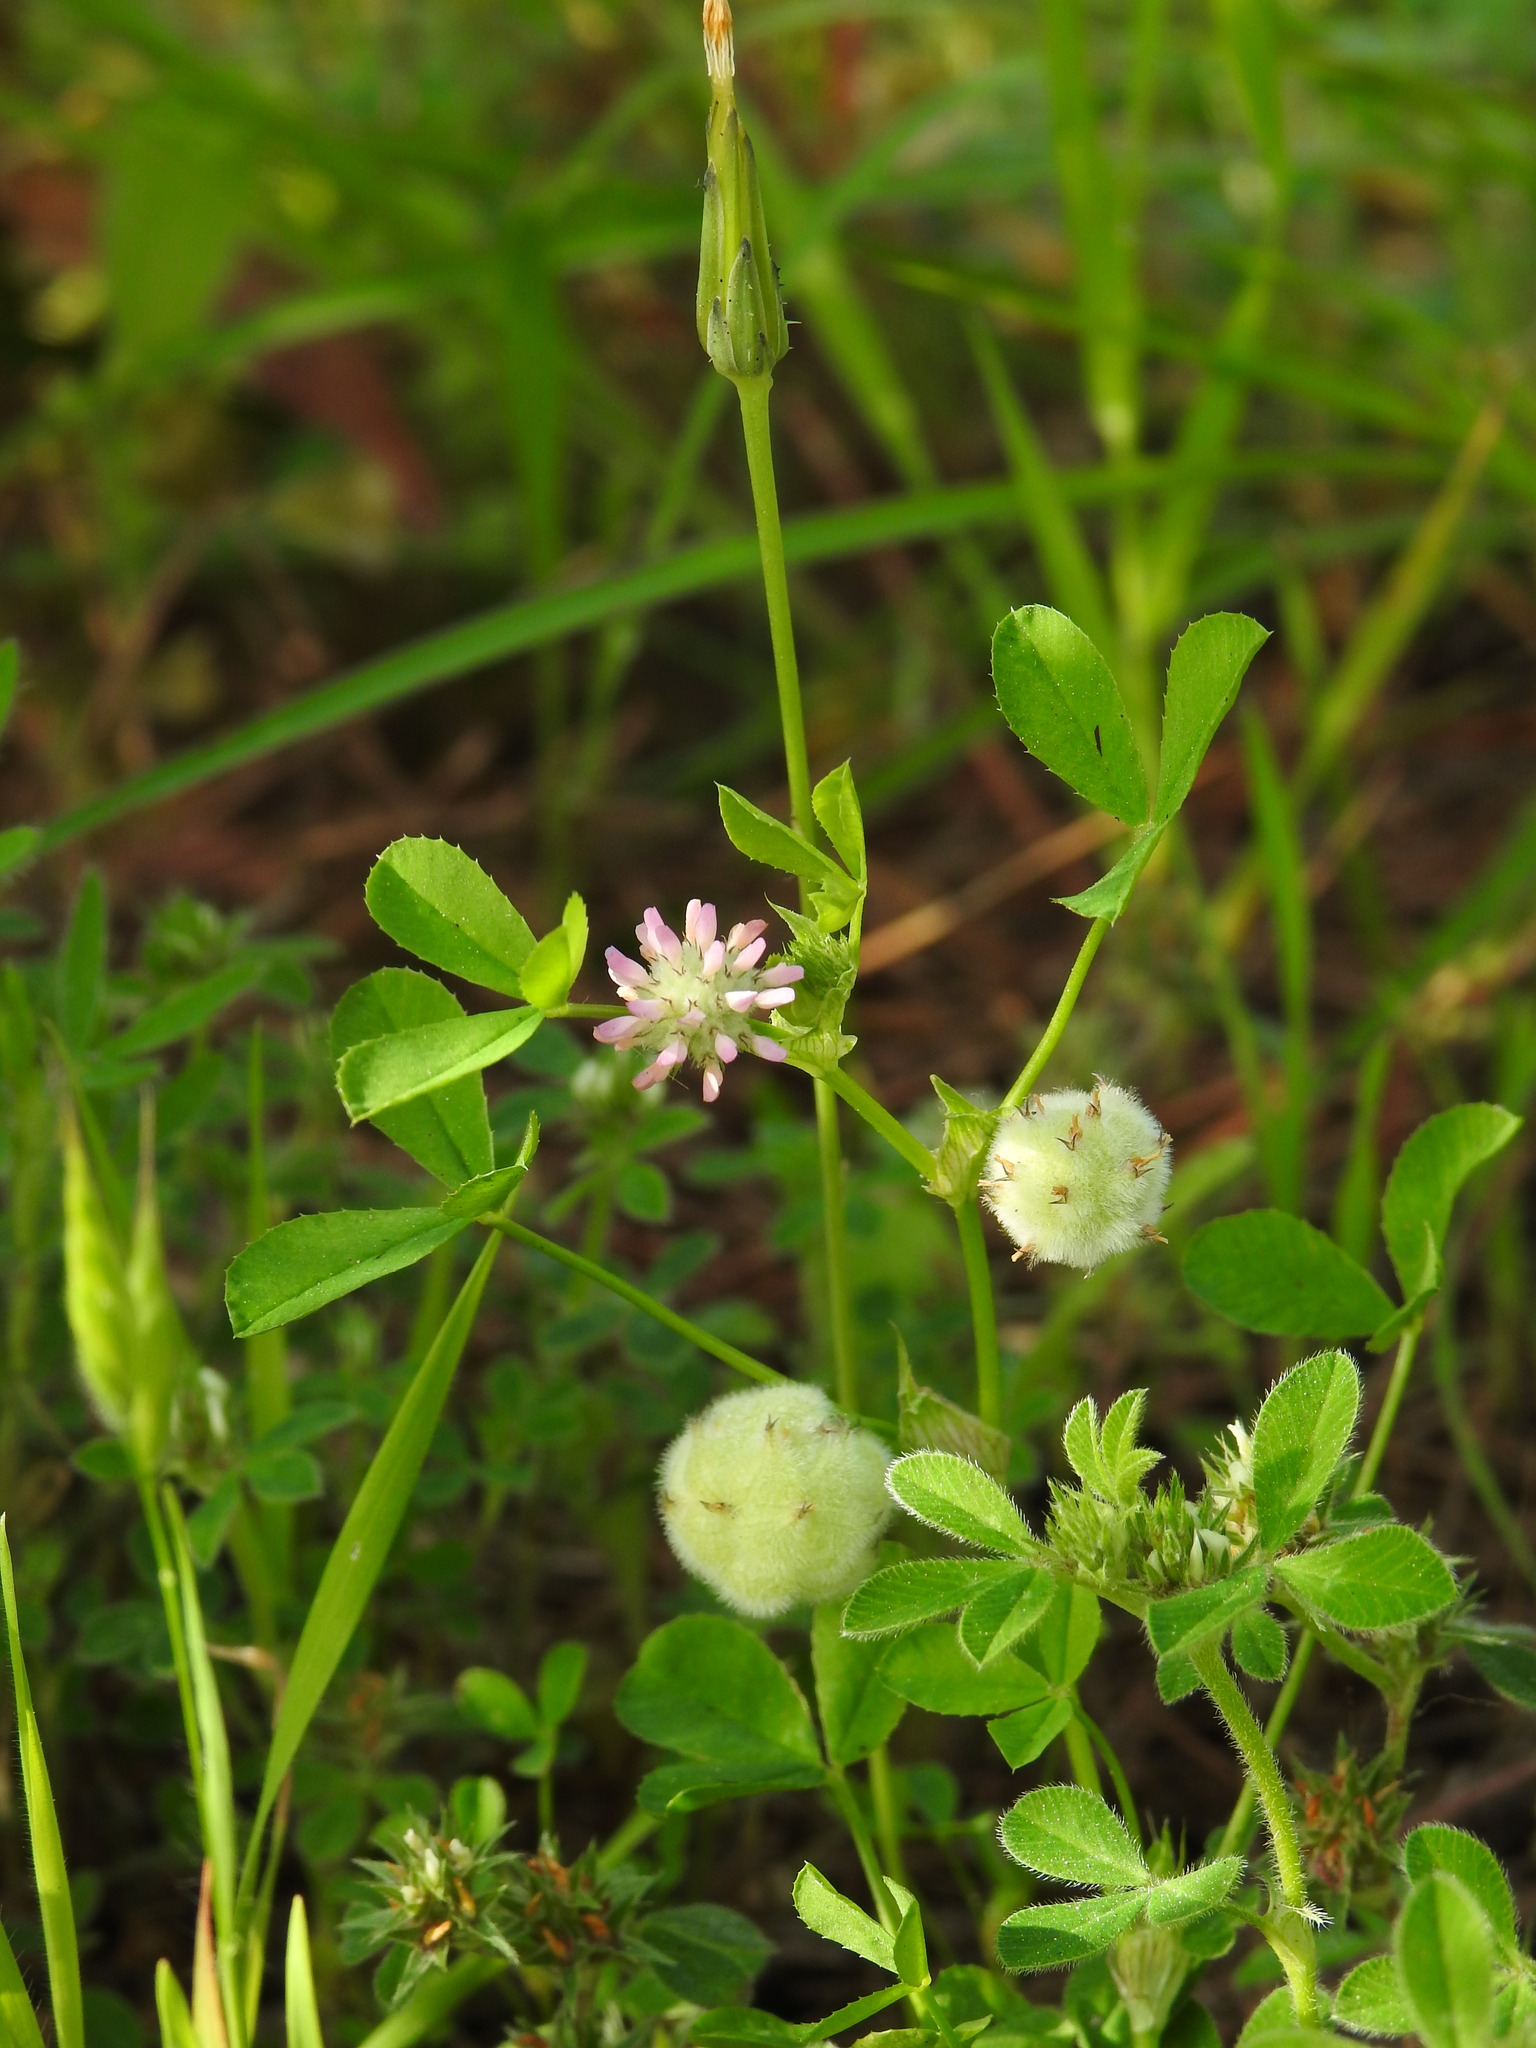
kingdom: Plantae
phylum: Tracheophyta
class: Magnoliopsida
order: Fabales
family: Fabaceae
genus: Trifolium
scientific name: Trifolium tomentosum
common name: Woolly clover
